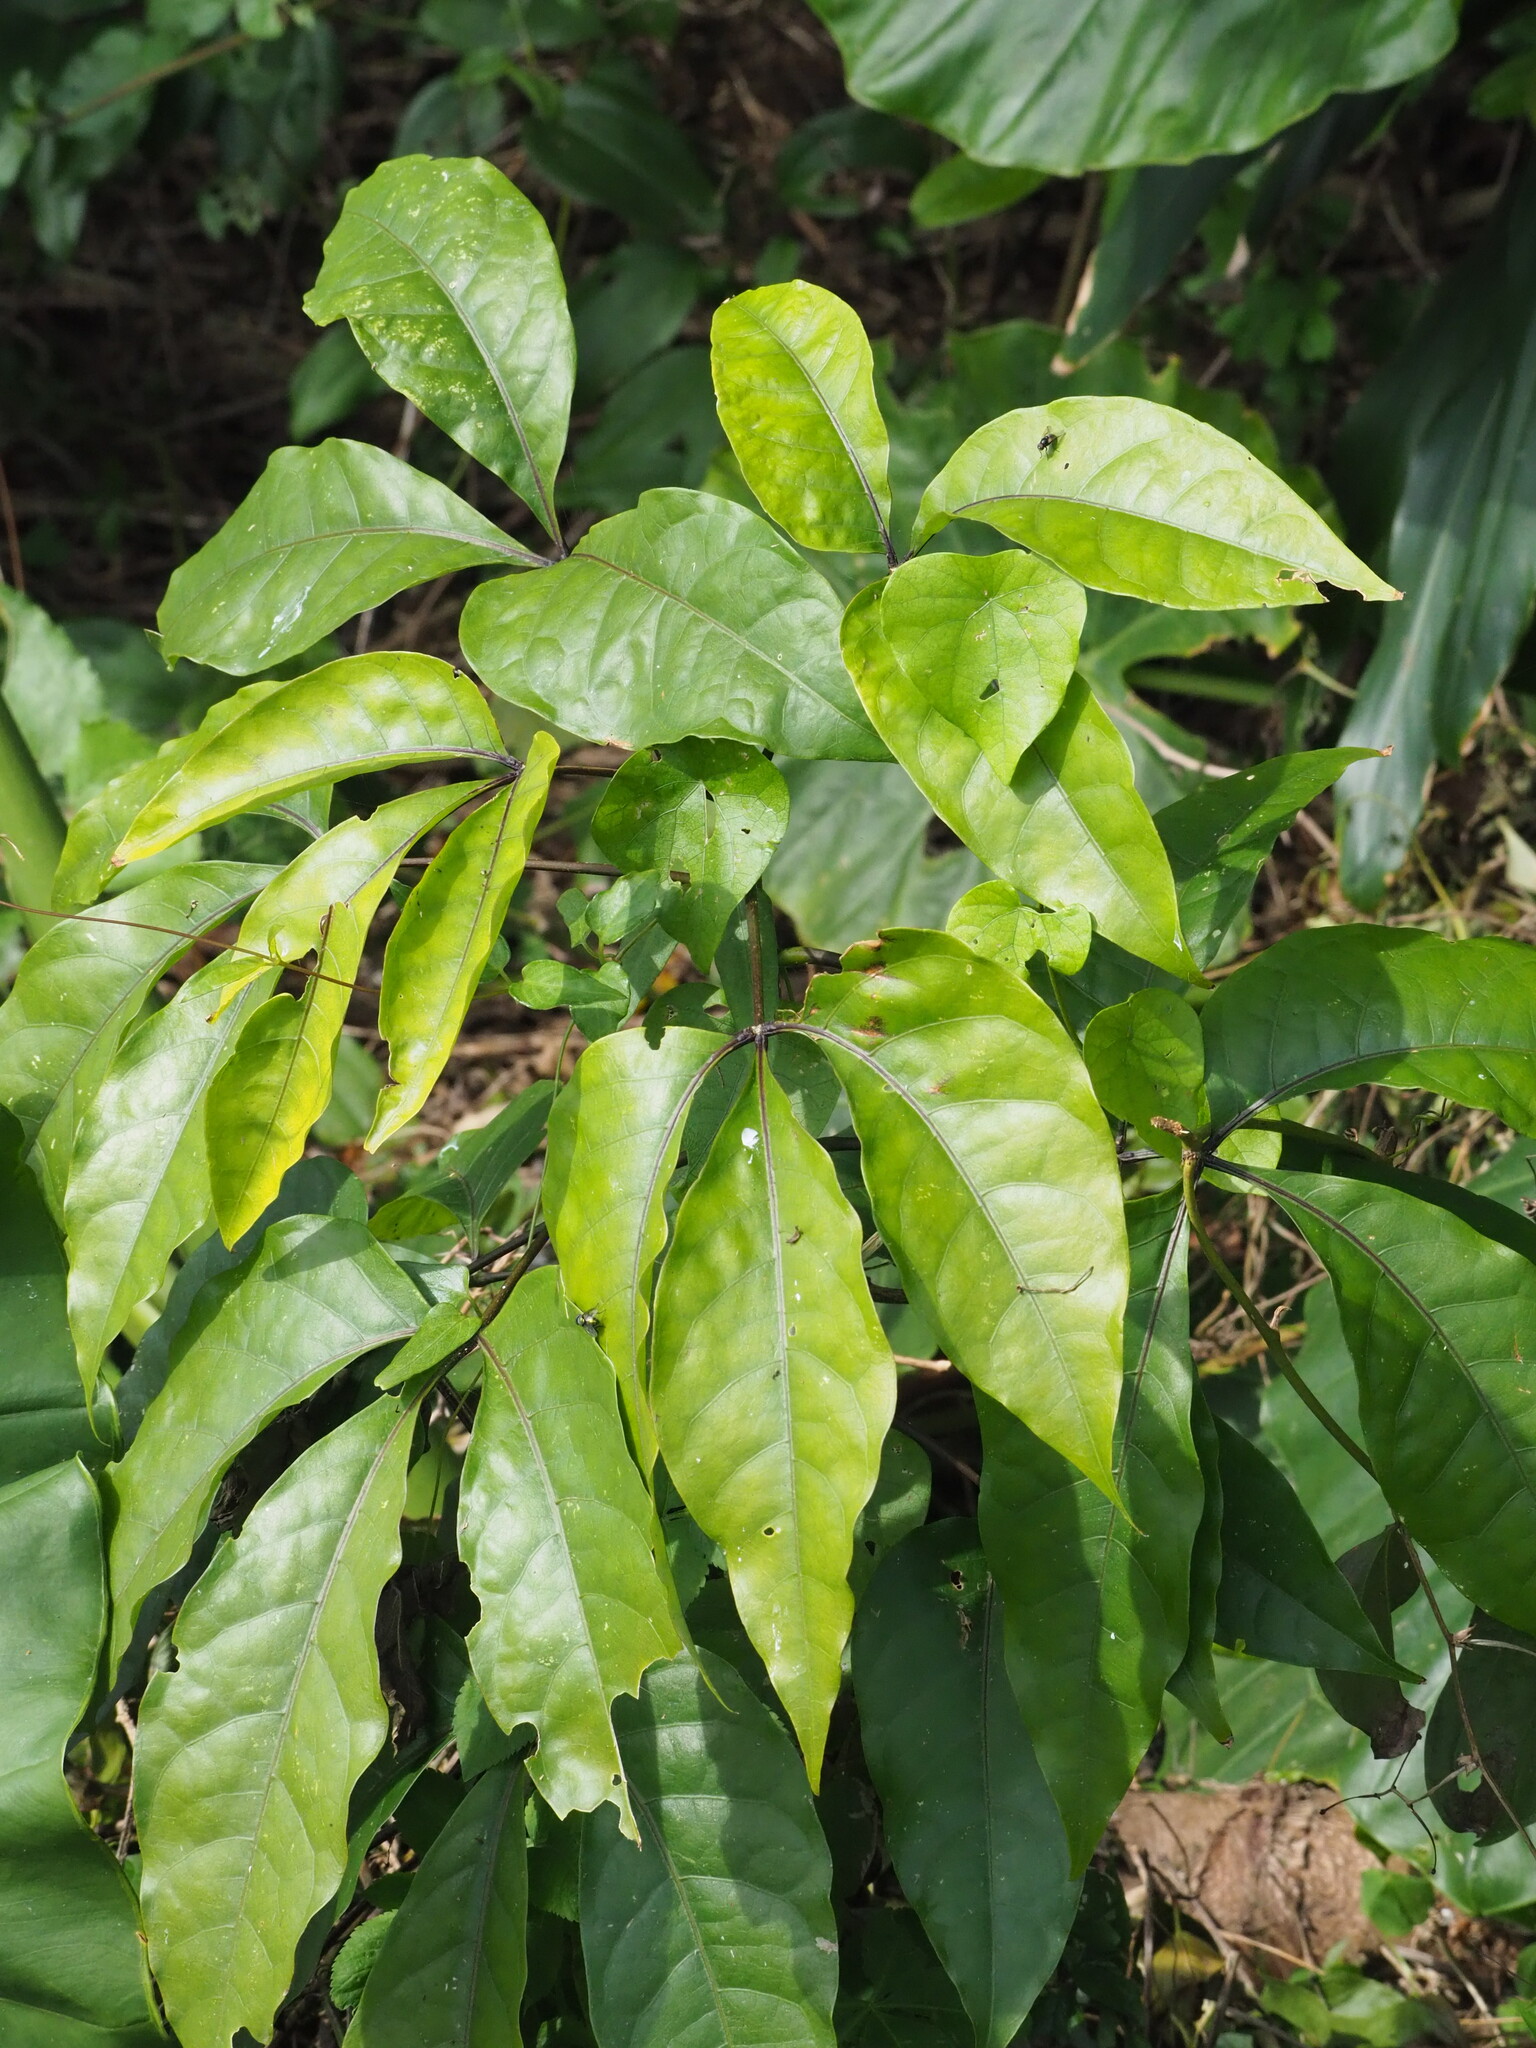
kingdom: Plantae
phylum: Tracheophyta
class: Magnoliopsida
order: Brassicales
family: Capparaceae
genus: Crateva
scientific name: Crateva formosensis
